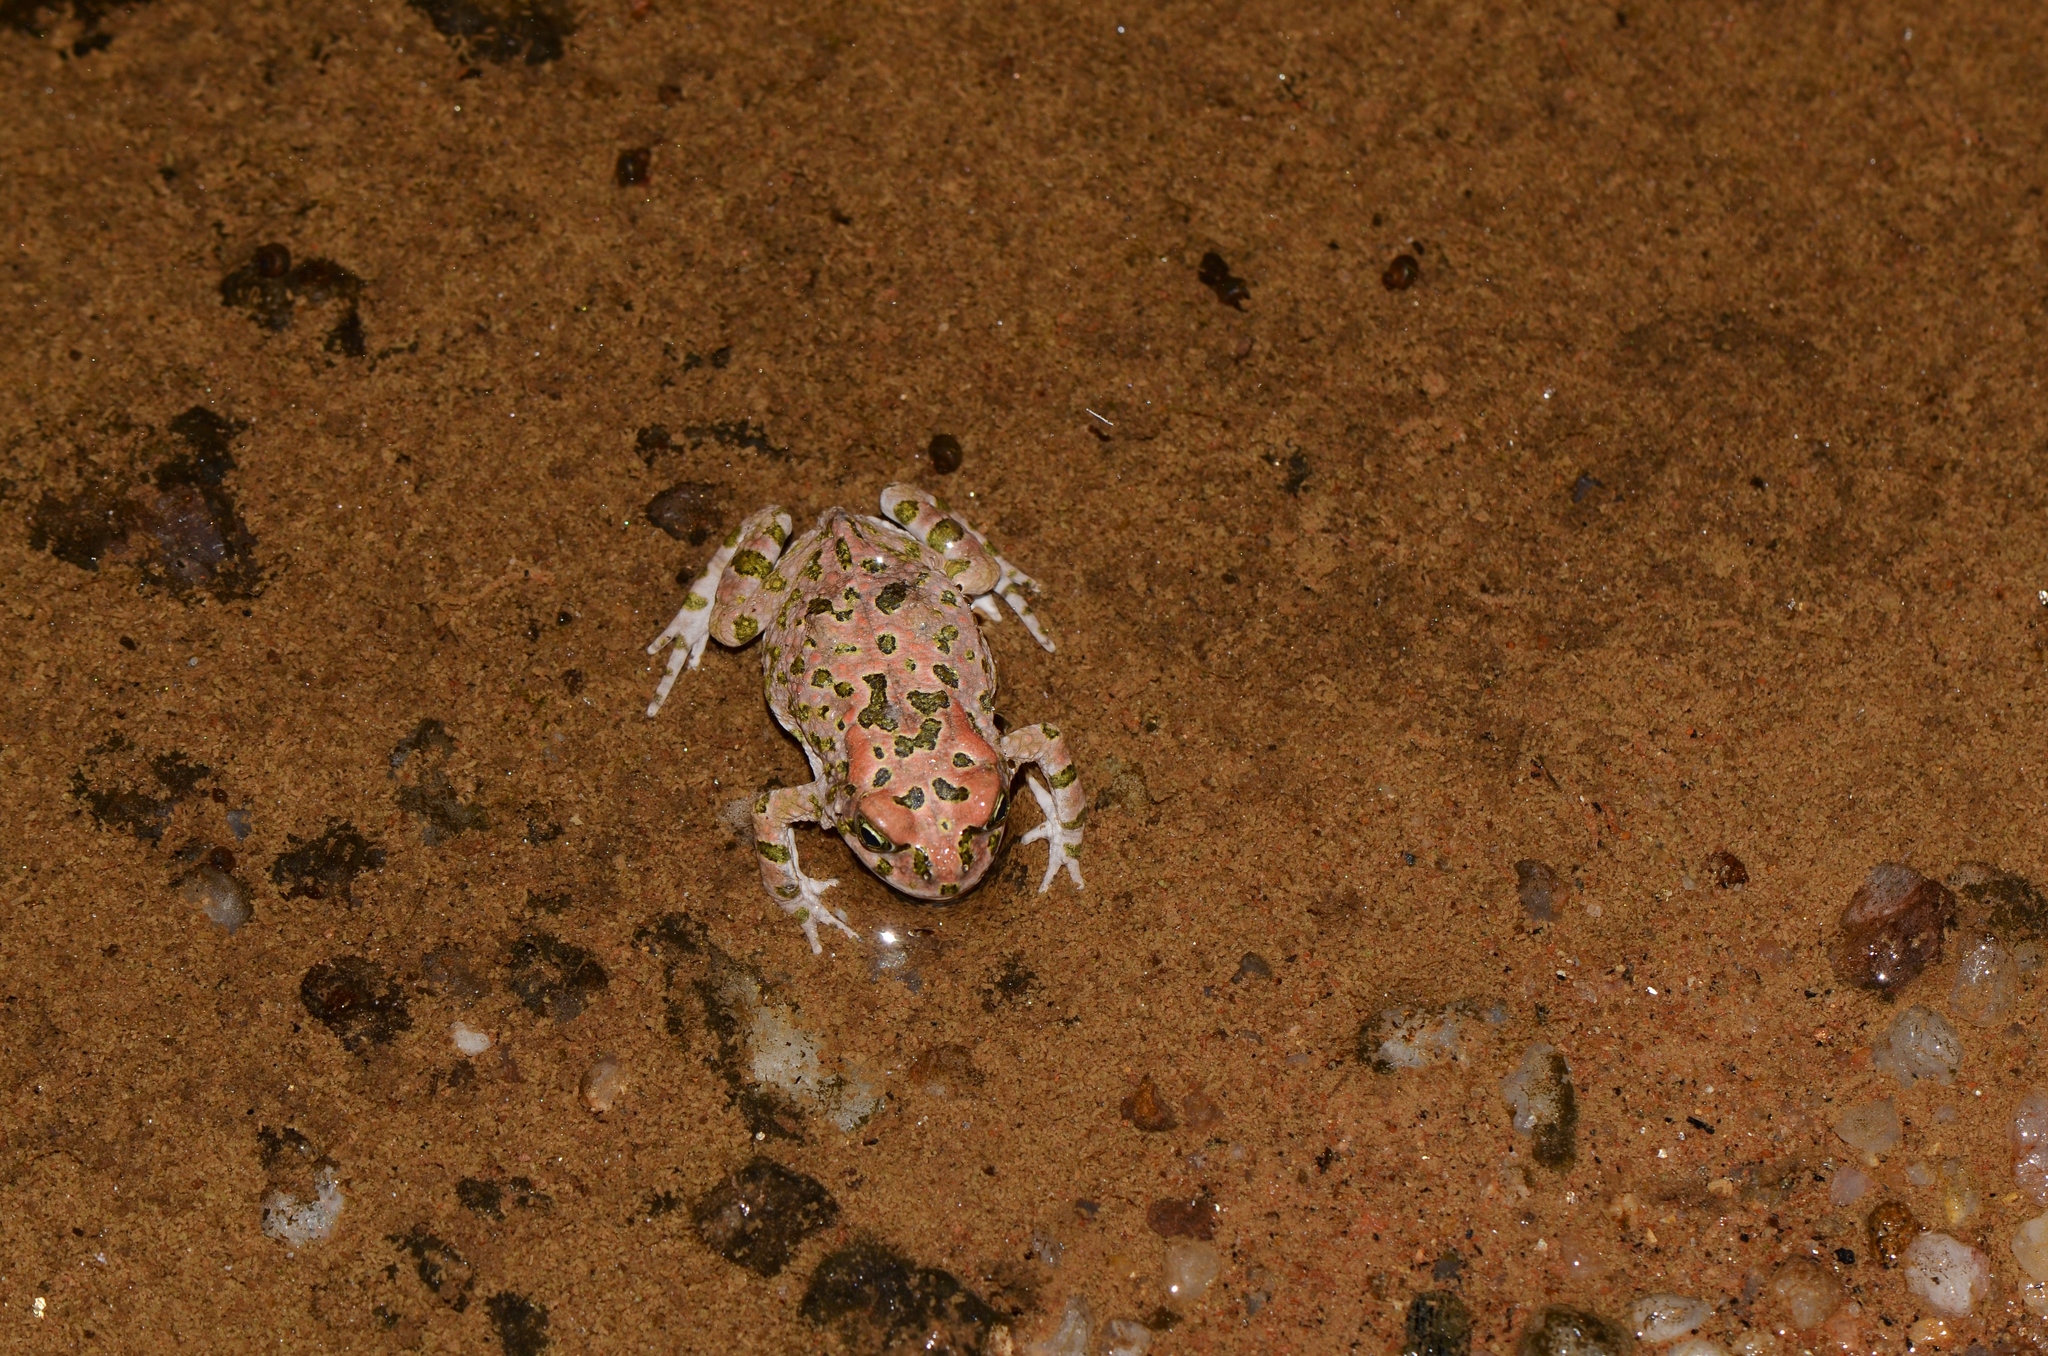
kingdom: Animalia
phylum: Chordata
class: Amphibia
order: Anura
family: Bufonidae
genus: Vandijkophrynus
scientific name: Vandijkophrynus robinsoni
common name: Paradise toad
